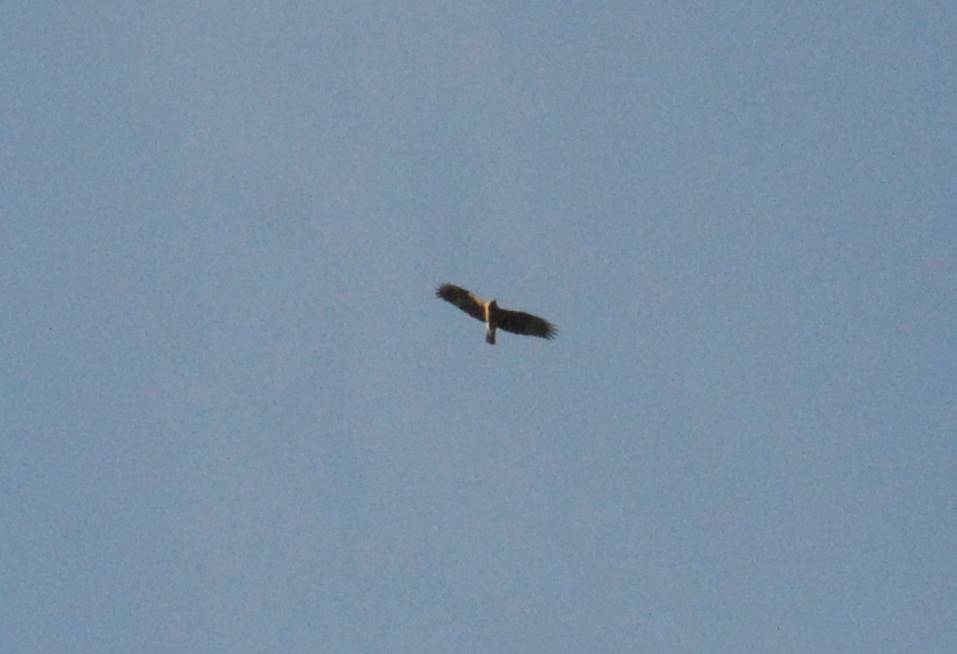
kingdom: Animalia
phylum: Chordata
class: Aves
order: Accipitriformes
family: Accipitridae
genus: Hieraaetus
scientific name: Hieraaetus pennatus
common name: Booted eagle
